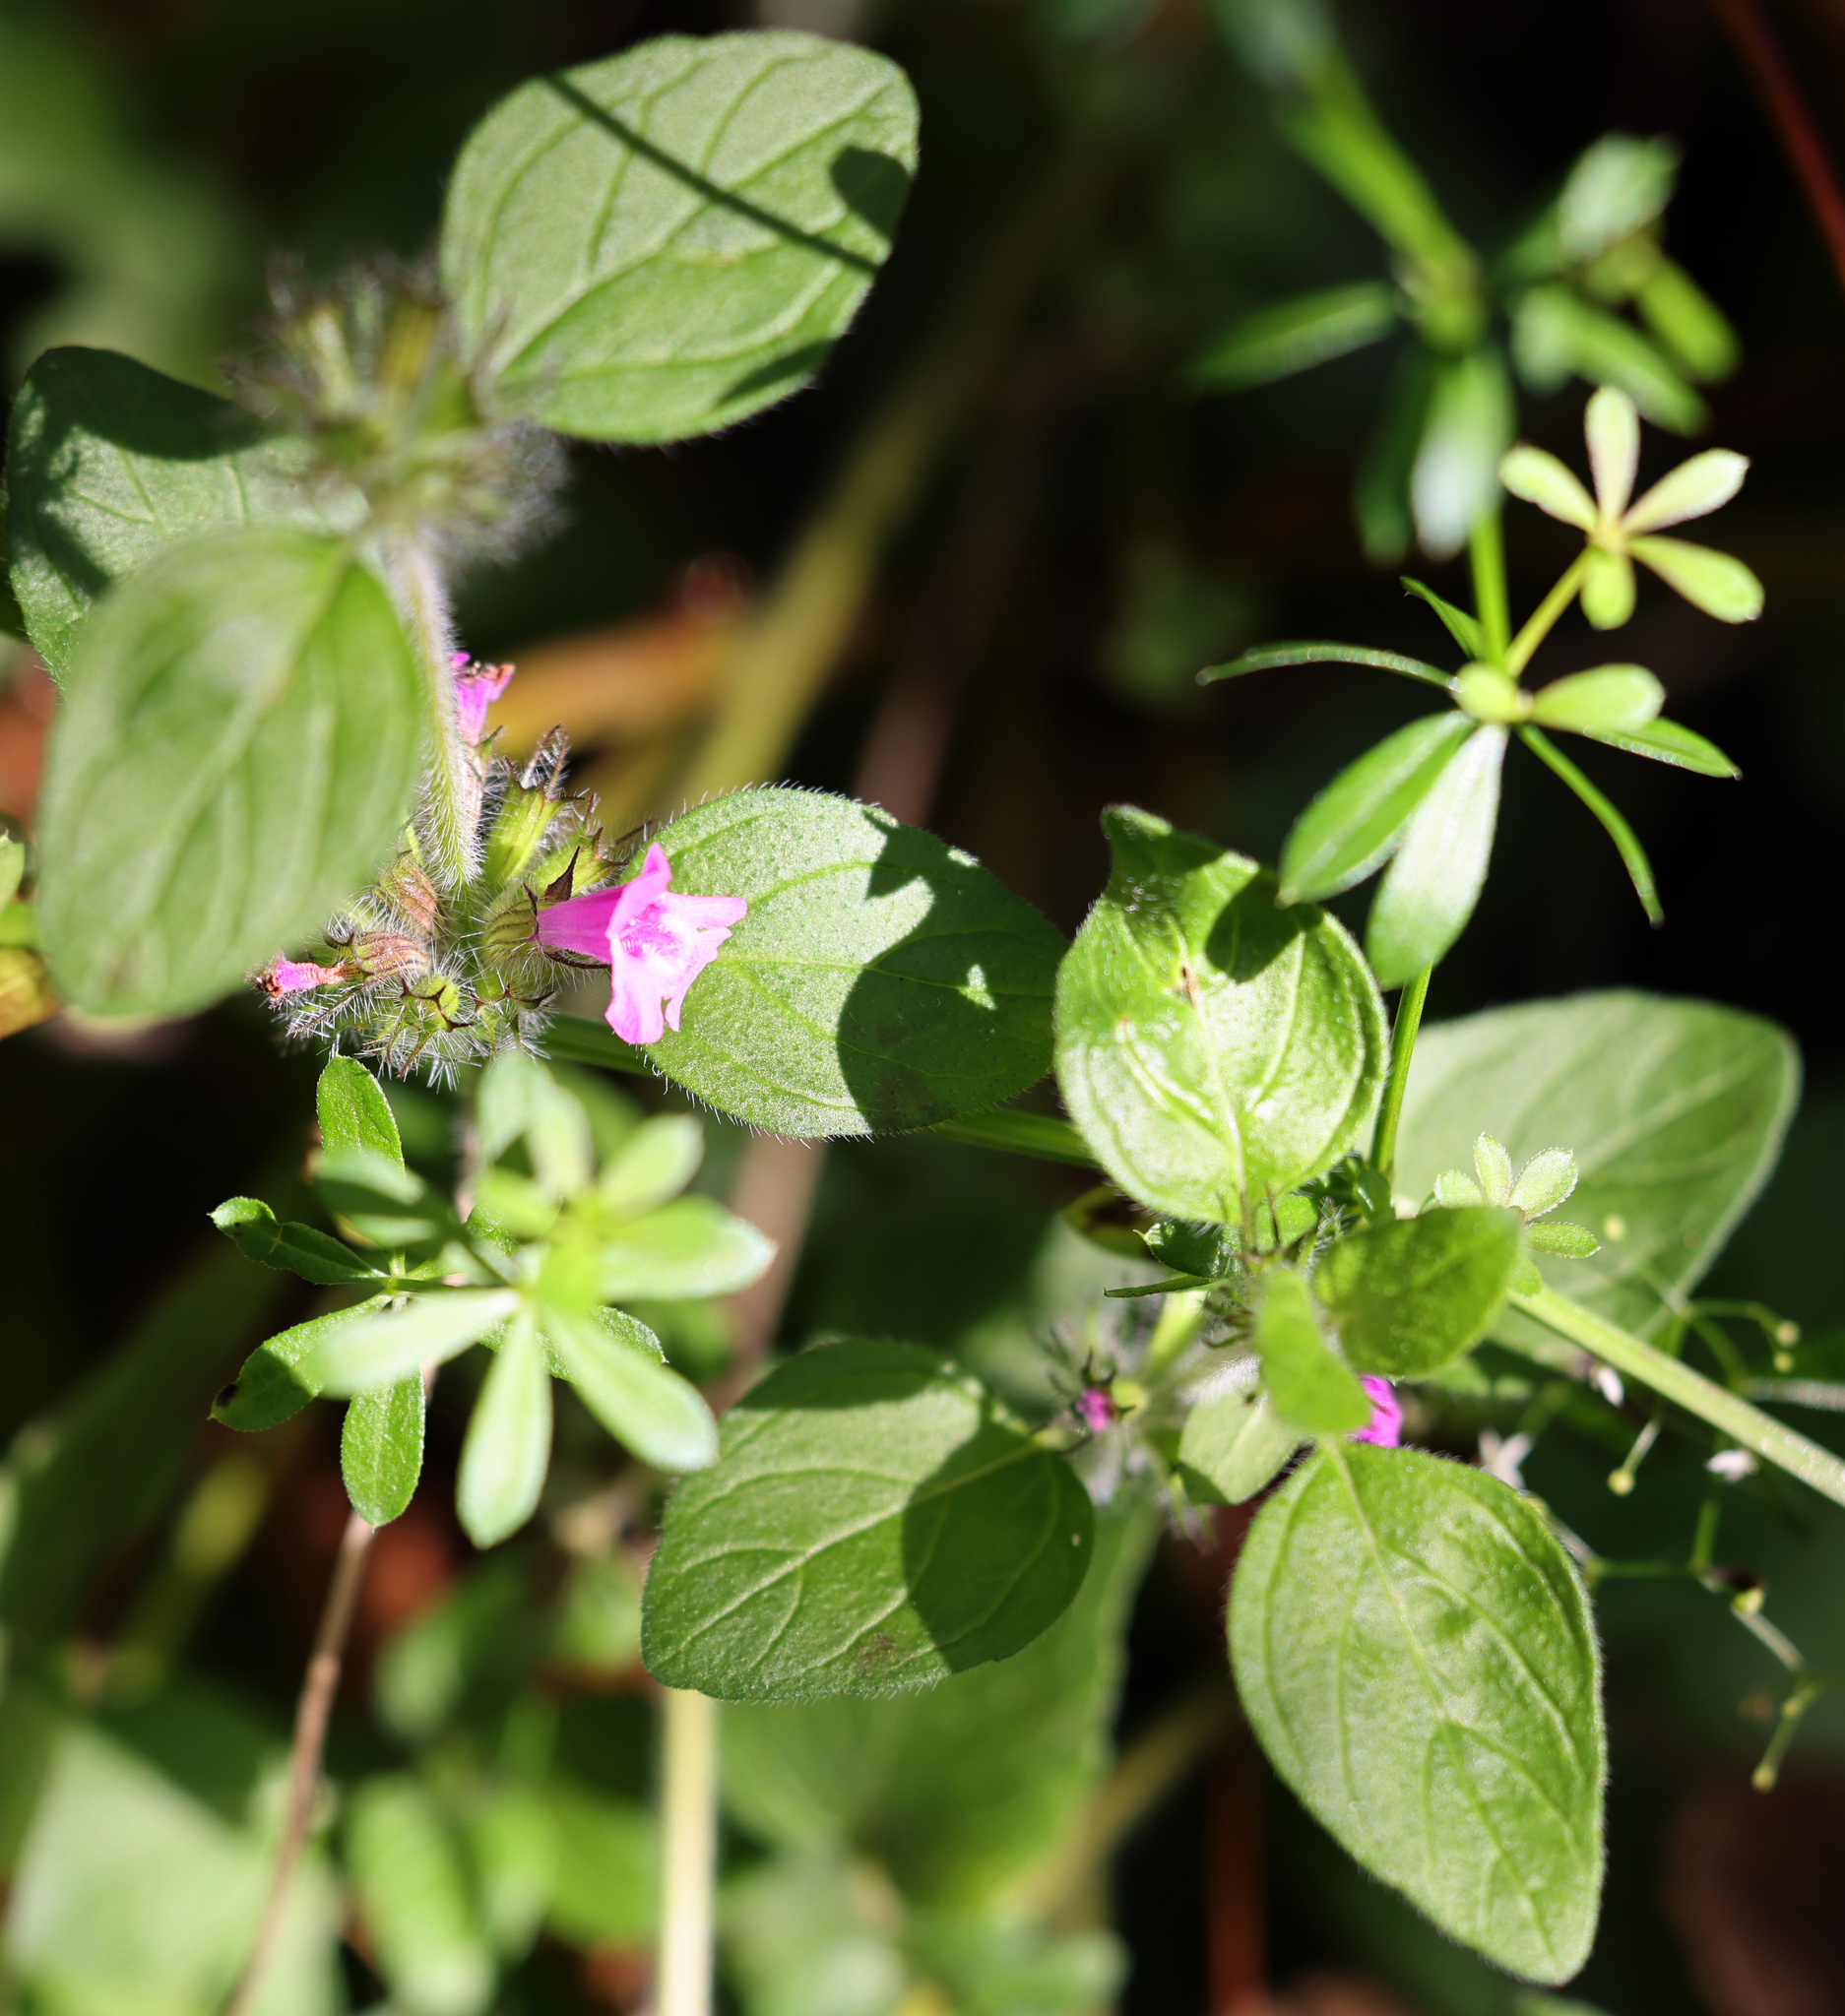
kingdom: Plantae
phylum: Tracheophyta
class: Magnoliopsida
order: Lamiales
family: Lamiaceae
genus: Clinopodium
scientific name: Clinopodium vulgare
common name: Wild basil
